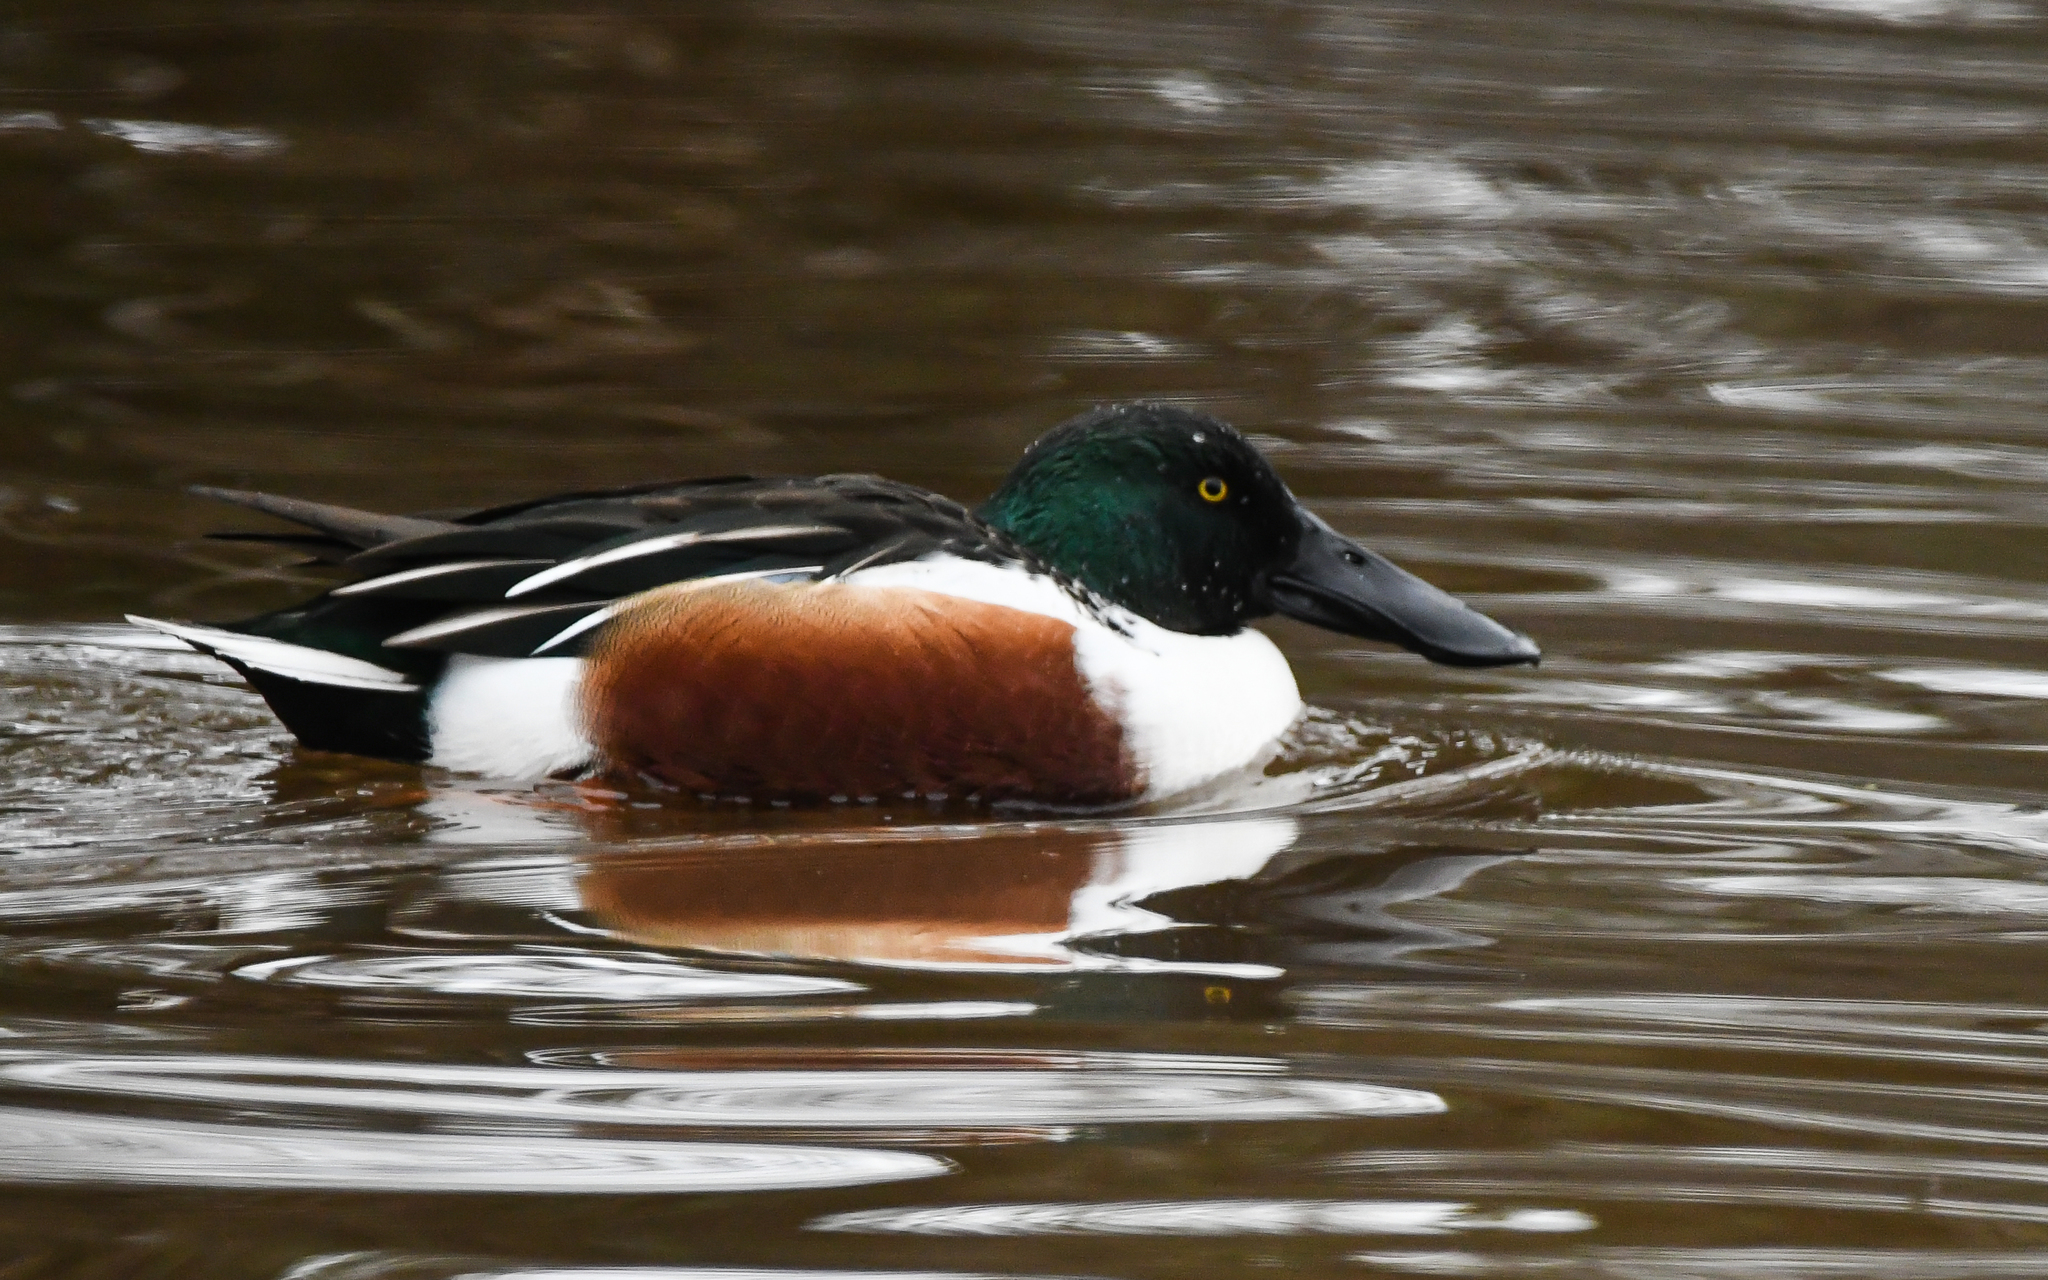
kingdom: Animalia
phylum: Chordata
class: Aves
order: Anseriformes
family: Anatidae
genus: Spatula
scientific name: Spatula clypeata
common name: Northern shoveler
